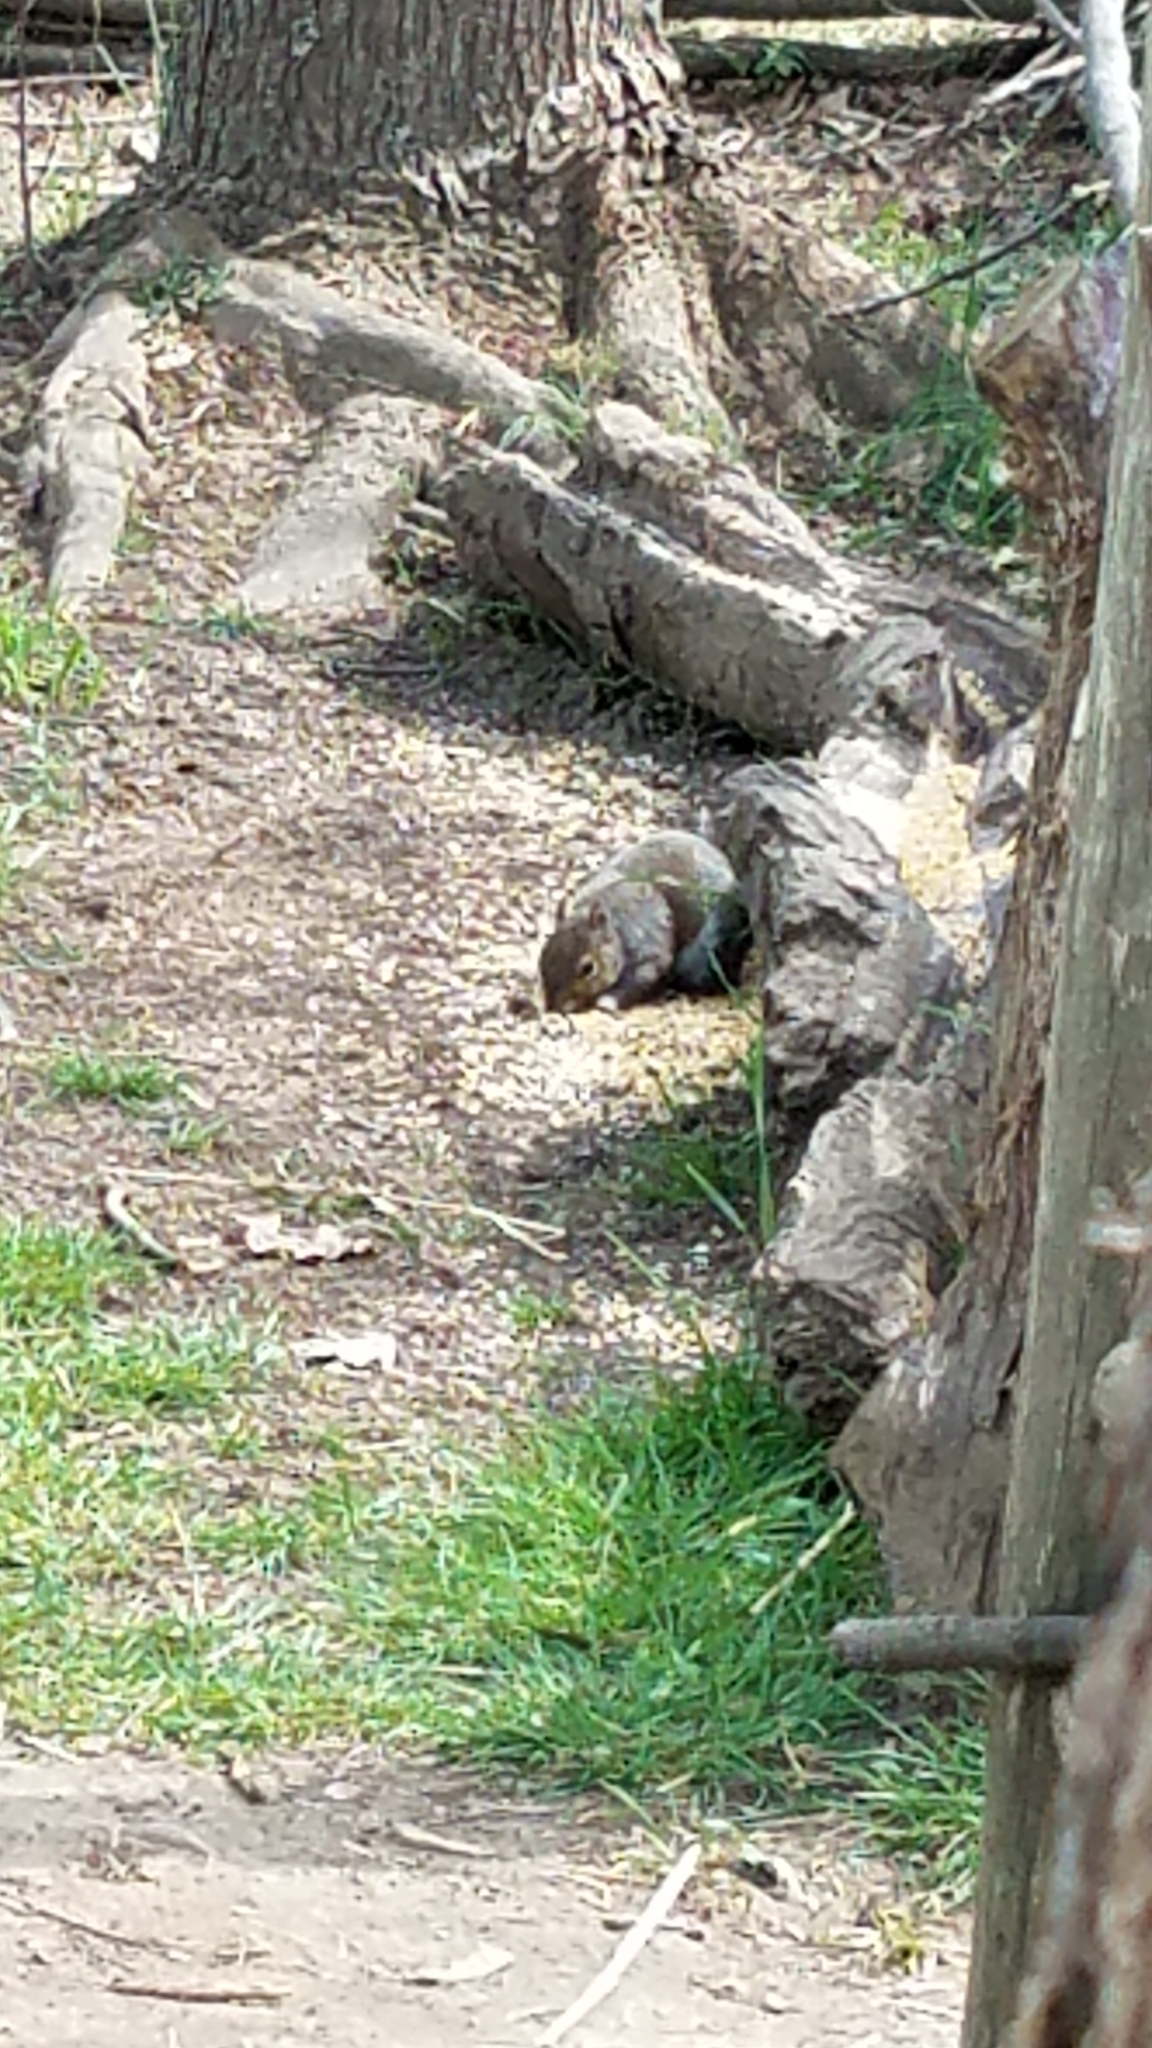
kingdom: Animalia
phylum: Chordata
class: Mammalia
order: Rodentia
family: Sciuridae
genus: Sciurus
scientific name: Sciurus carolinensis
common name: Eastern gray squirrel
